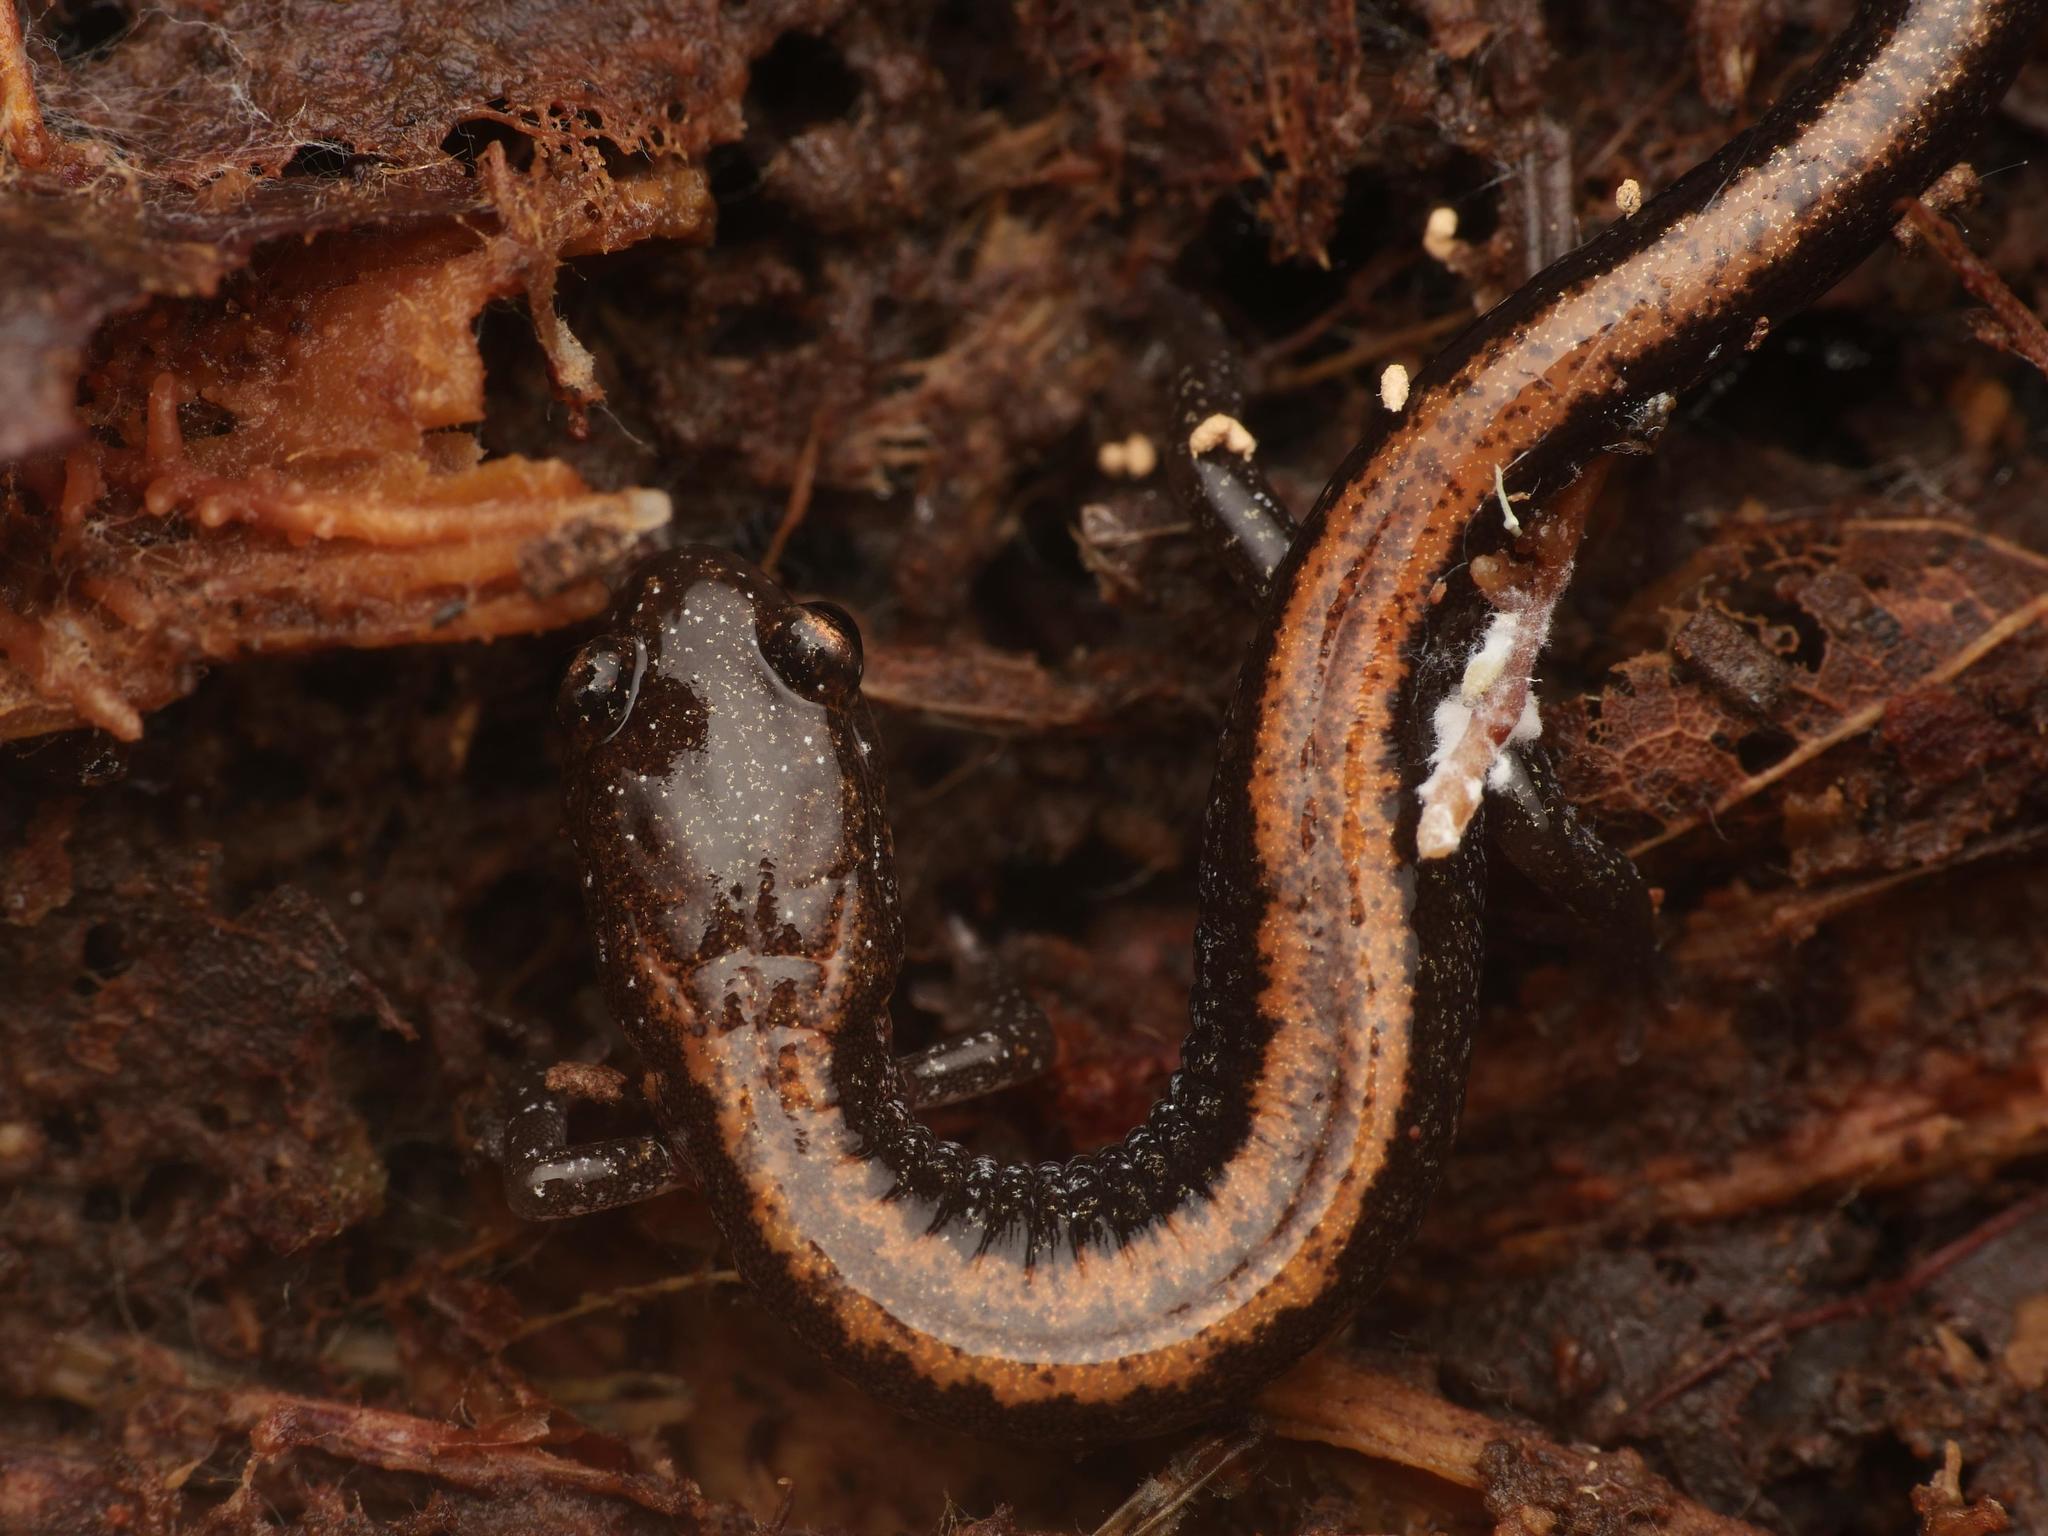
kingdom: Animalia
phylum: Chordata
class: Amphibia
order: Caudata
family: Plethodontidae
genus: Plethodon
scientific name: Plethodon cinereus
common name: Redback salamander
